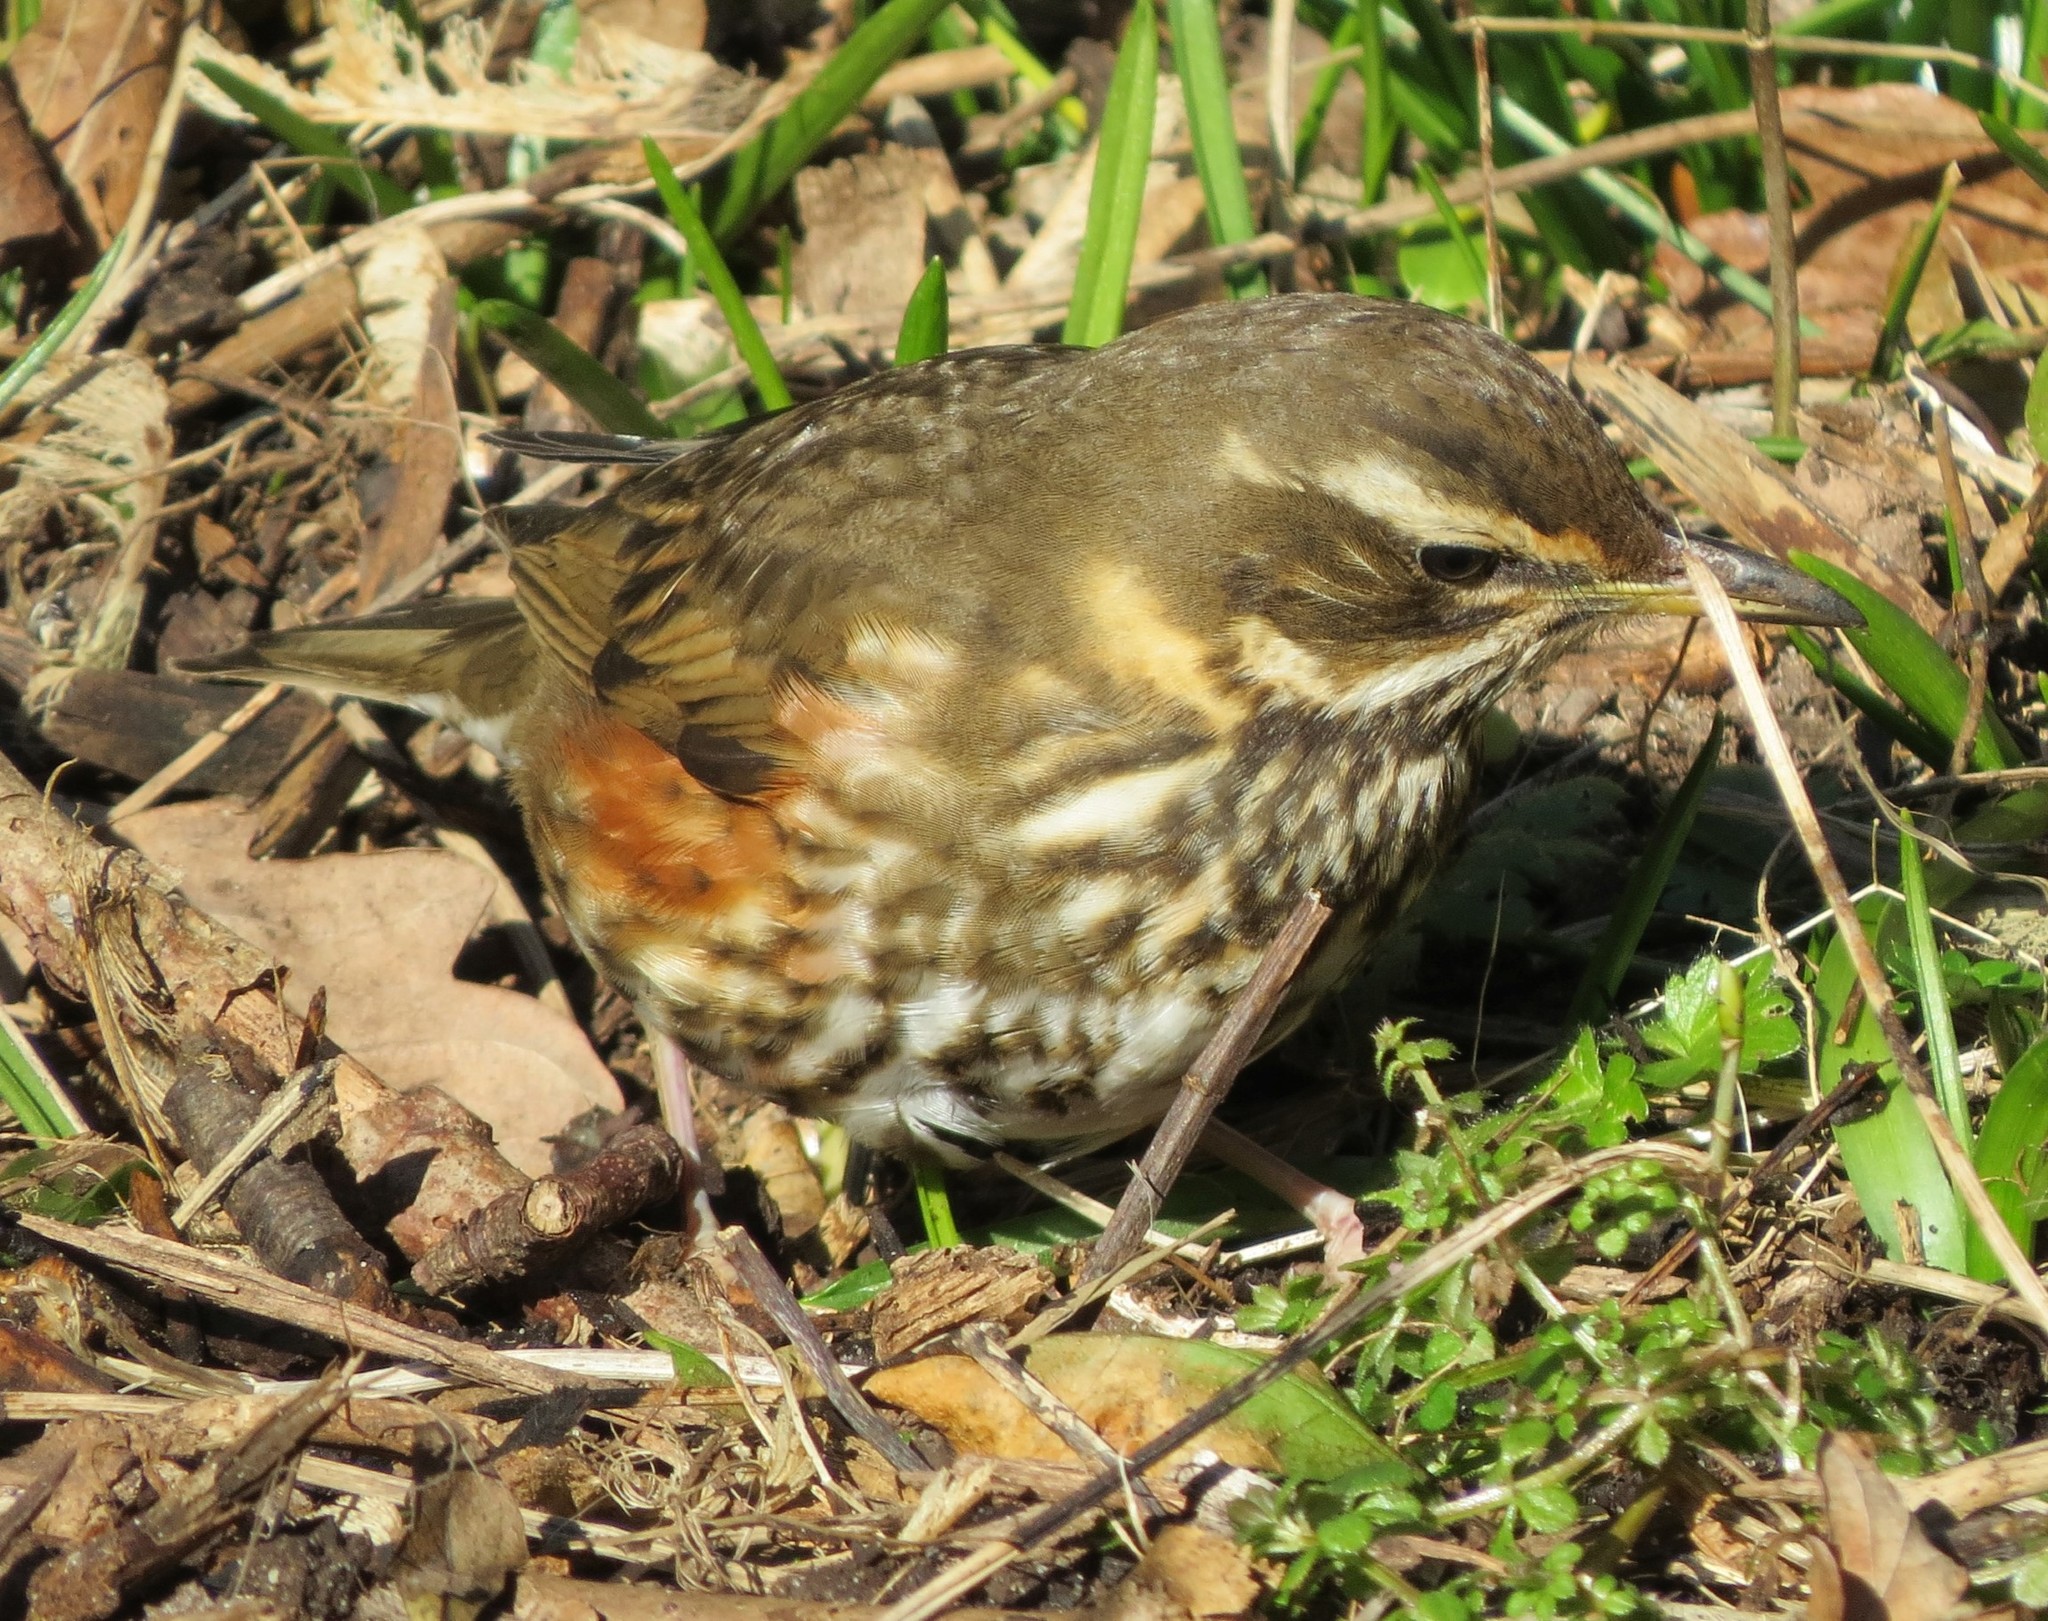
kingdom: Animalia
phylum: Chordata
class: Aves
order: Passeriformes
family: Turdidae
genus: Turdus
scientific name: Turdus iliacus
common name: Redwing
